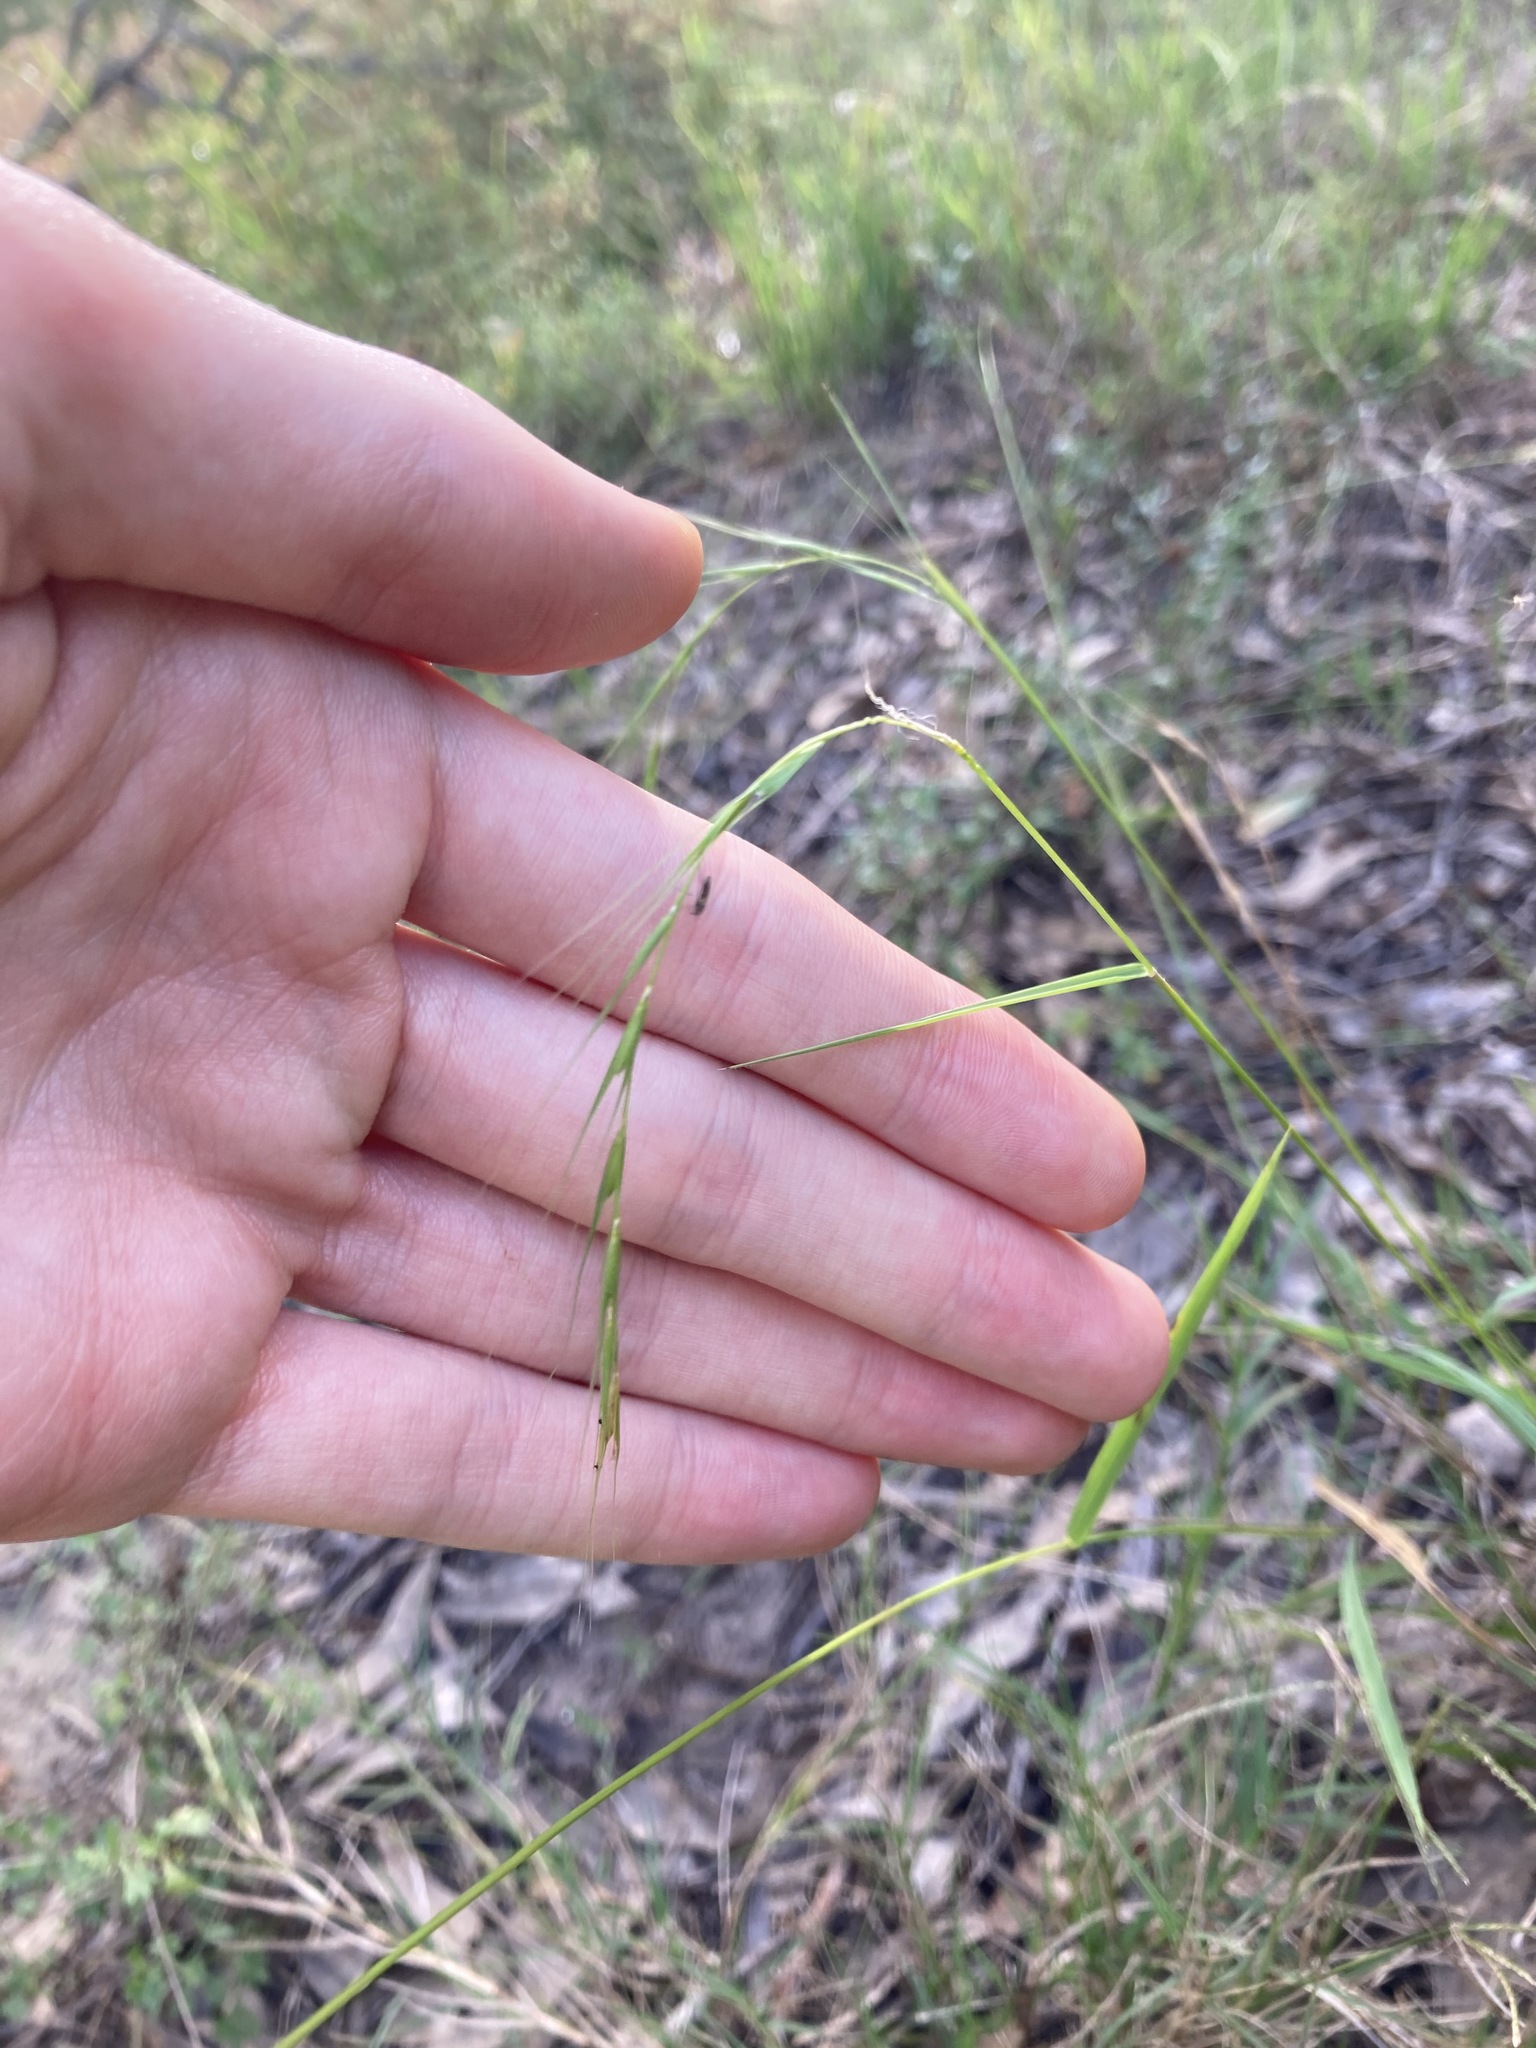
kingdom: Plantae
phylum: Tracheophyta
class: Liliopsida
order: Poales
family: Poaceae
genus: Microlaena
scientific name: Microlaena stipoides
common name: Meadow ricegrass
